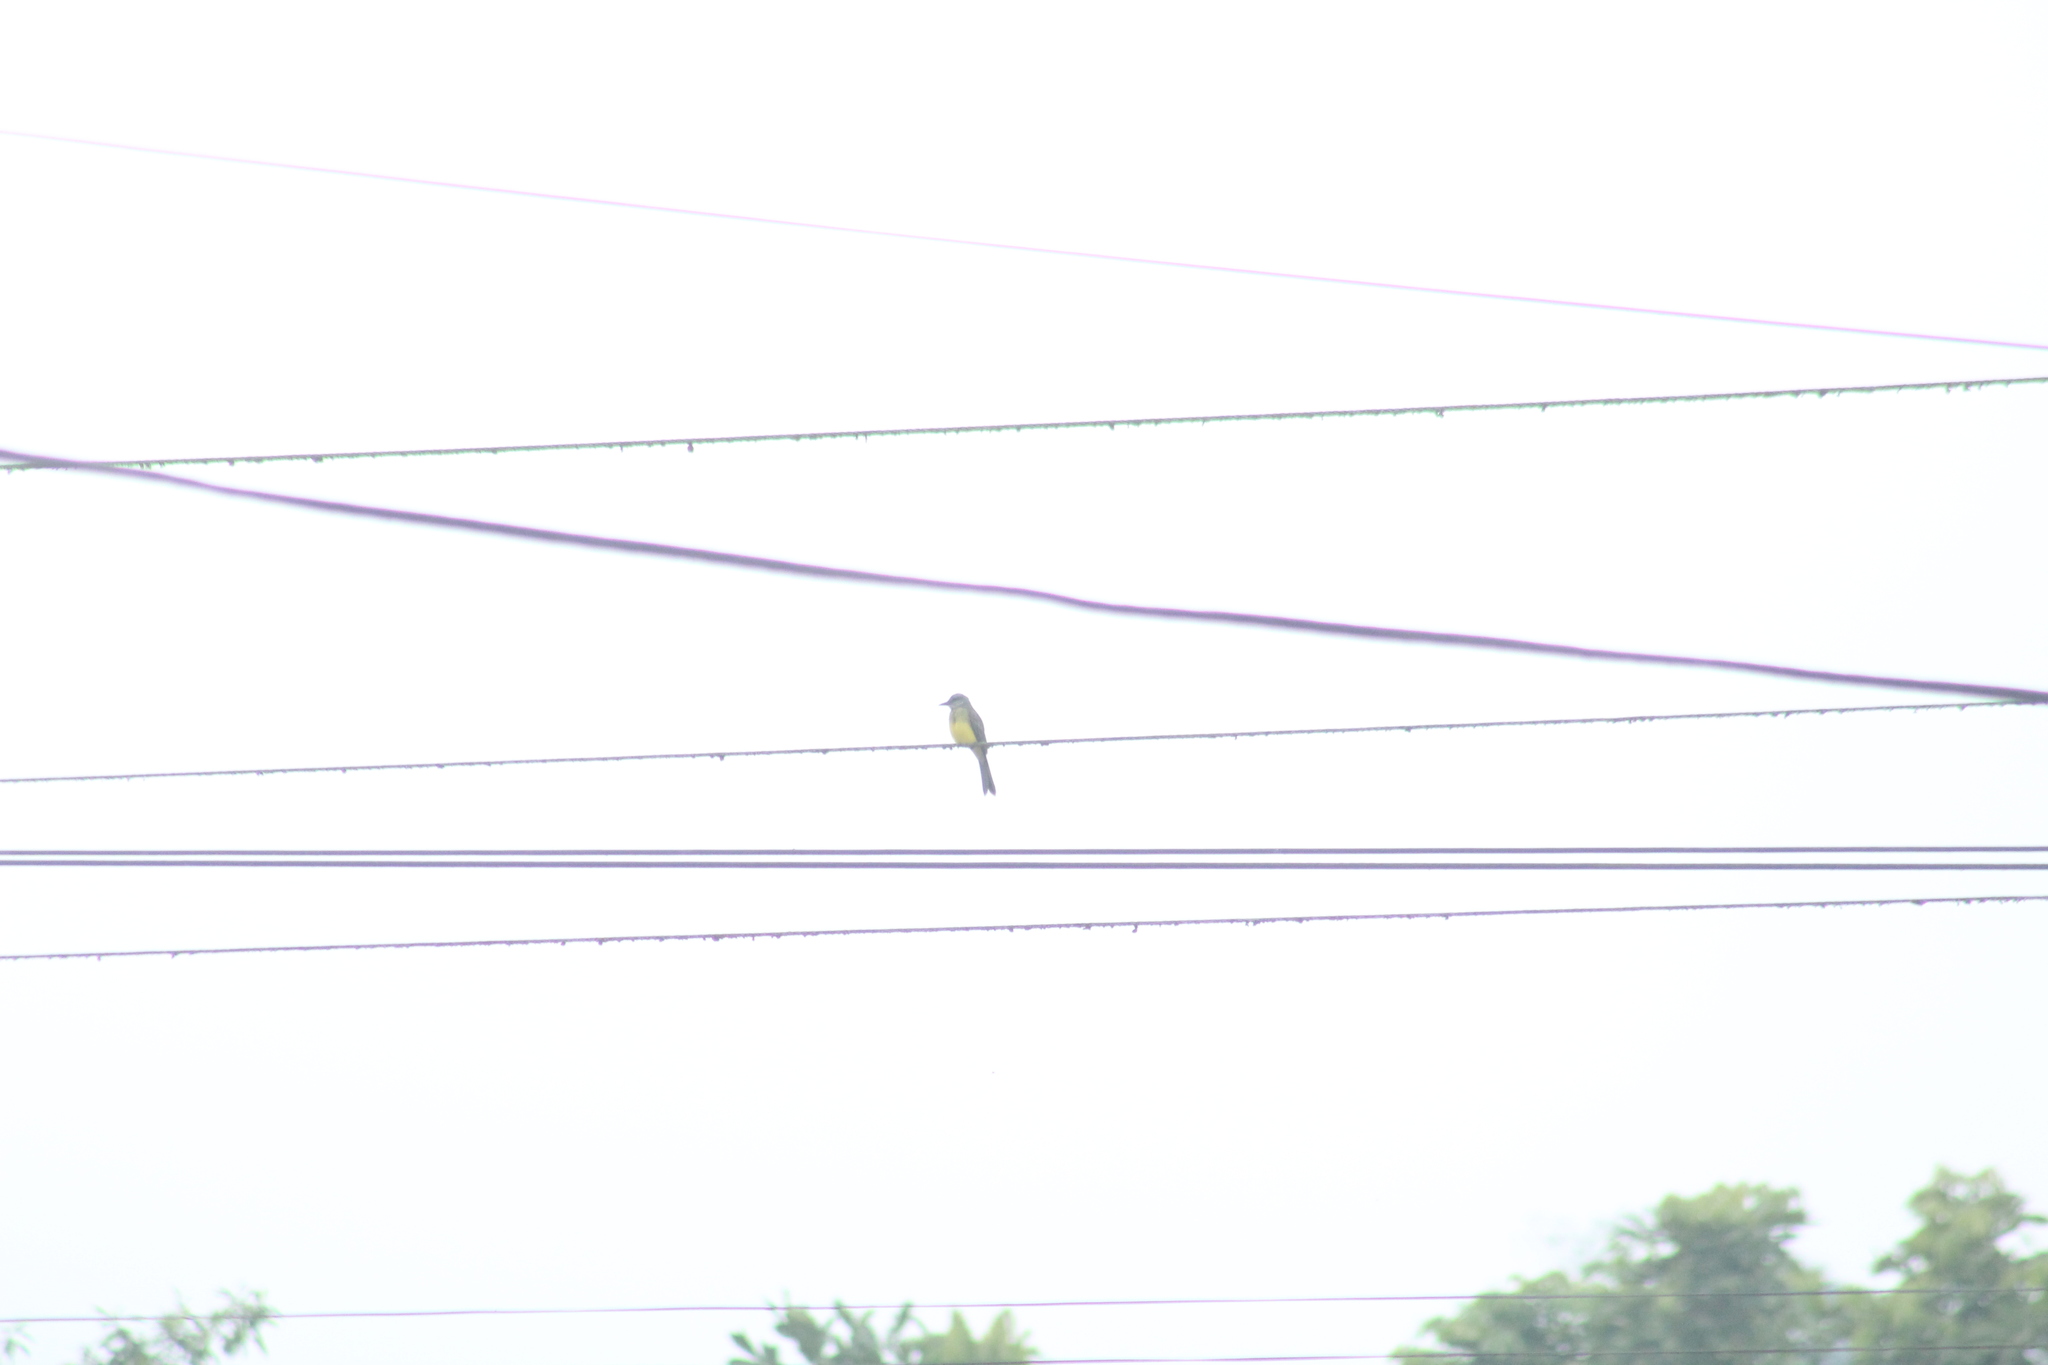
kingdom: Animalia
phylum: Chordata
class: Aves
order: Passeriformes
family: Tyrannidae
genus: Tyrannus
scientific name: Tyrannus melancholicus
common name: Tropical kingbird
